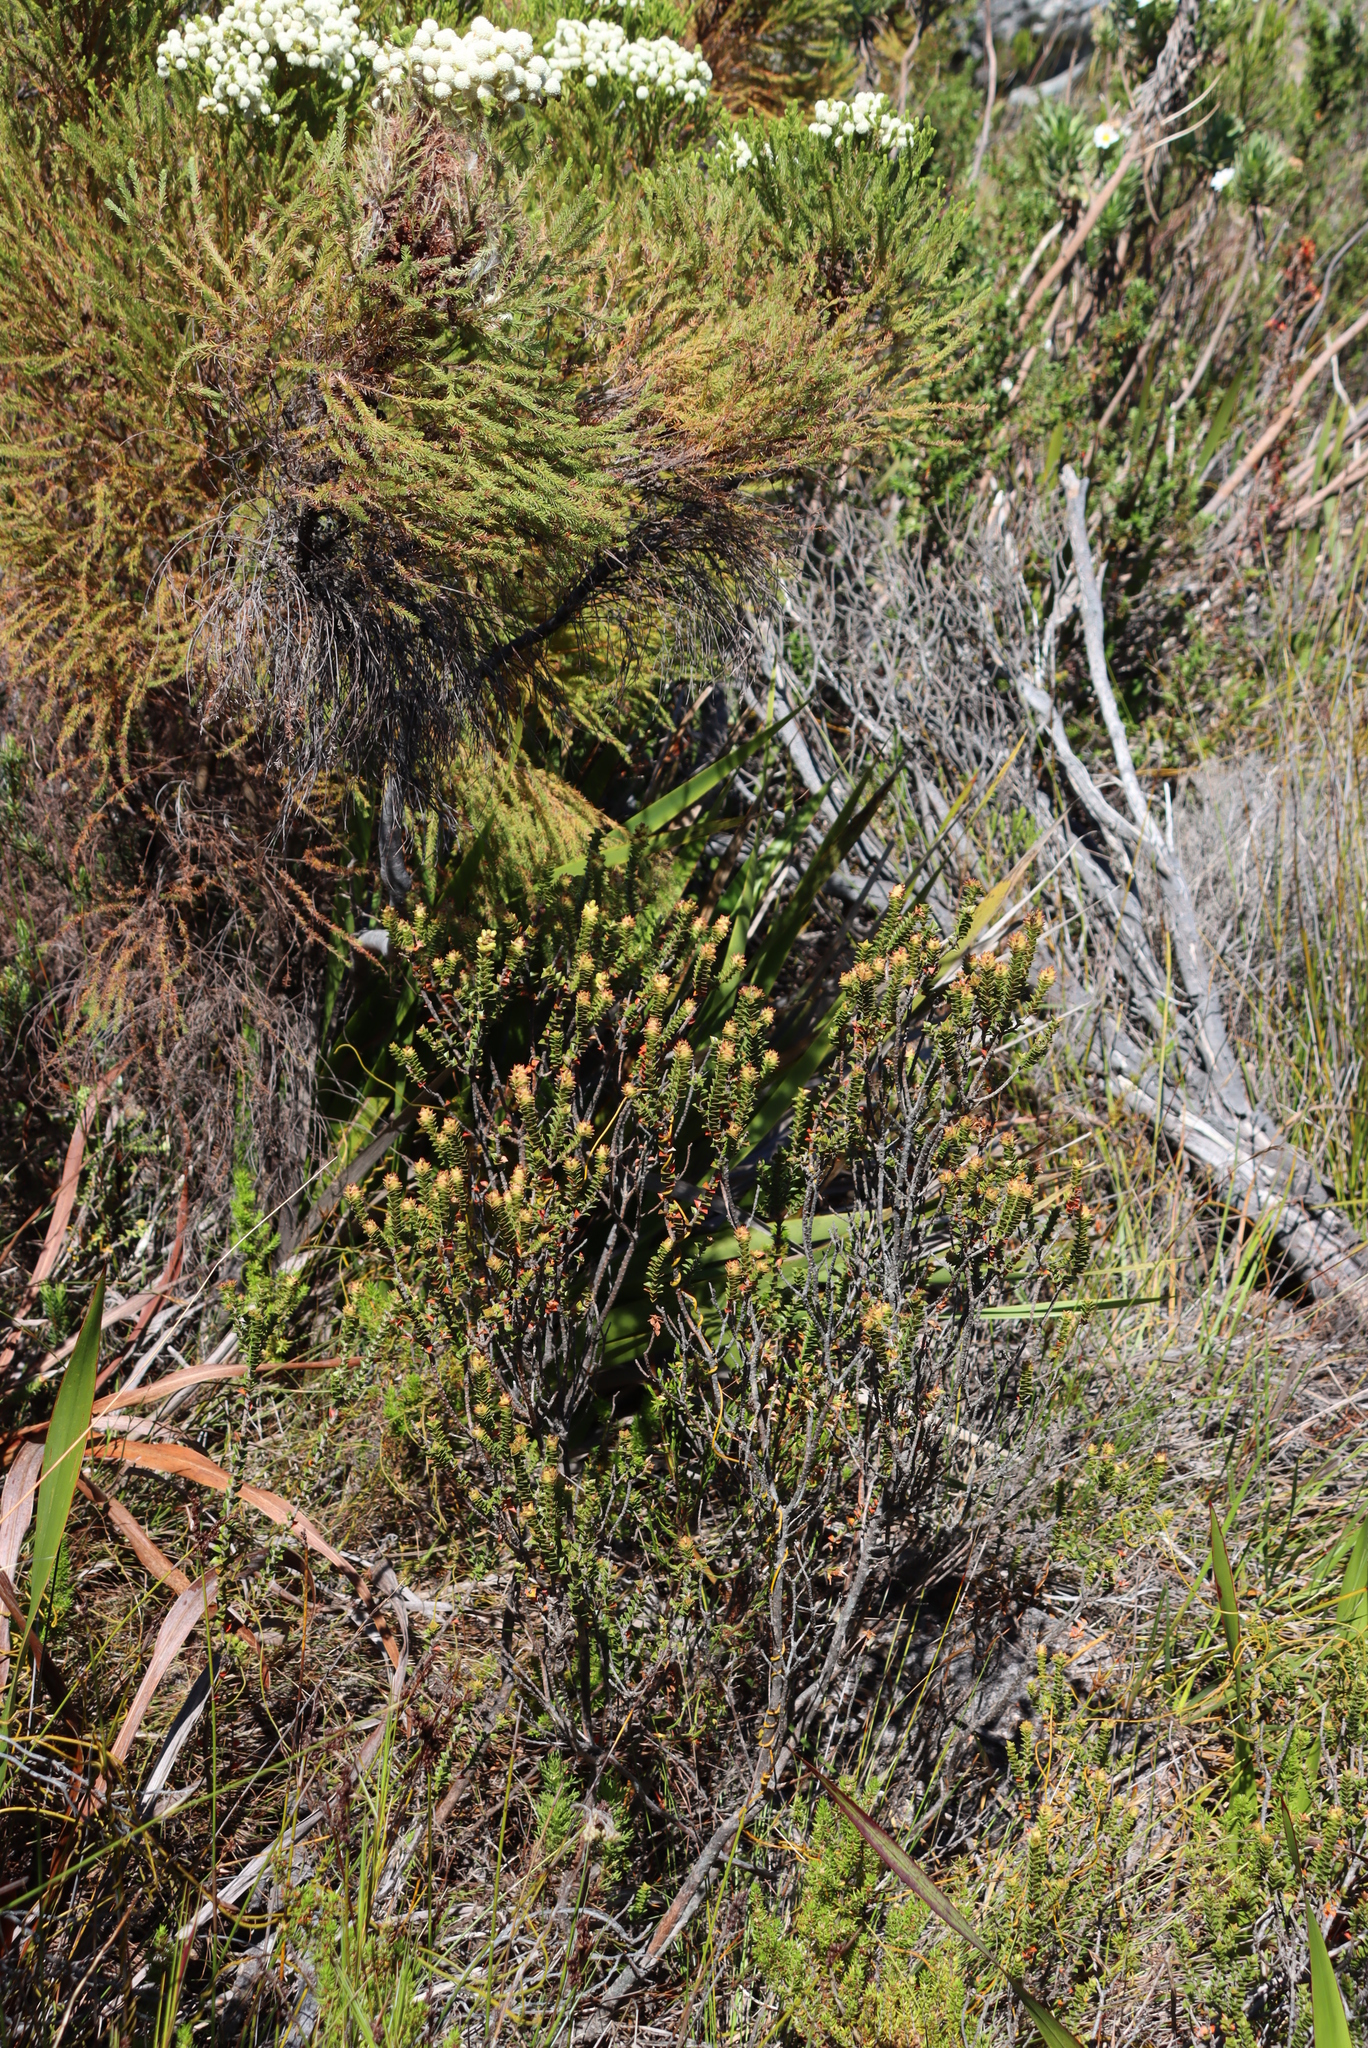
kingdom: Plantae
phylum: Tracheophyta
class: Magnoliopsida
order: Bruniales
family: Bruniaceae
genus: Berzelia
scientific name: Berzelia lanuginosa
